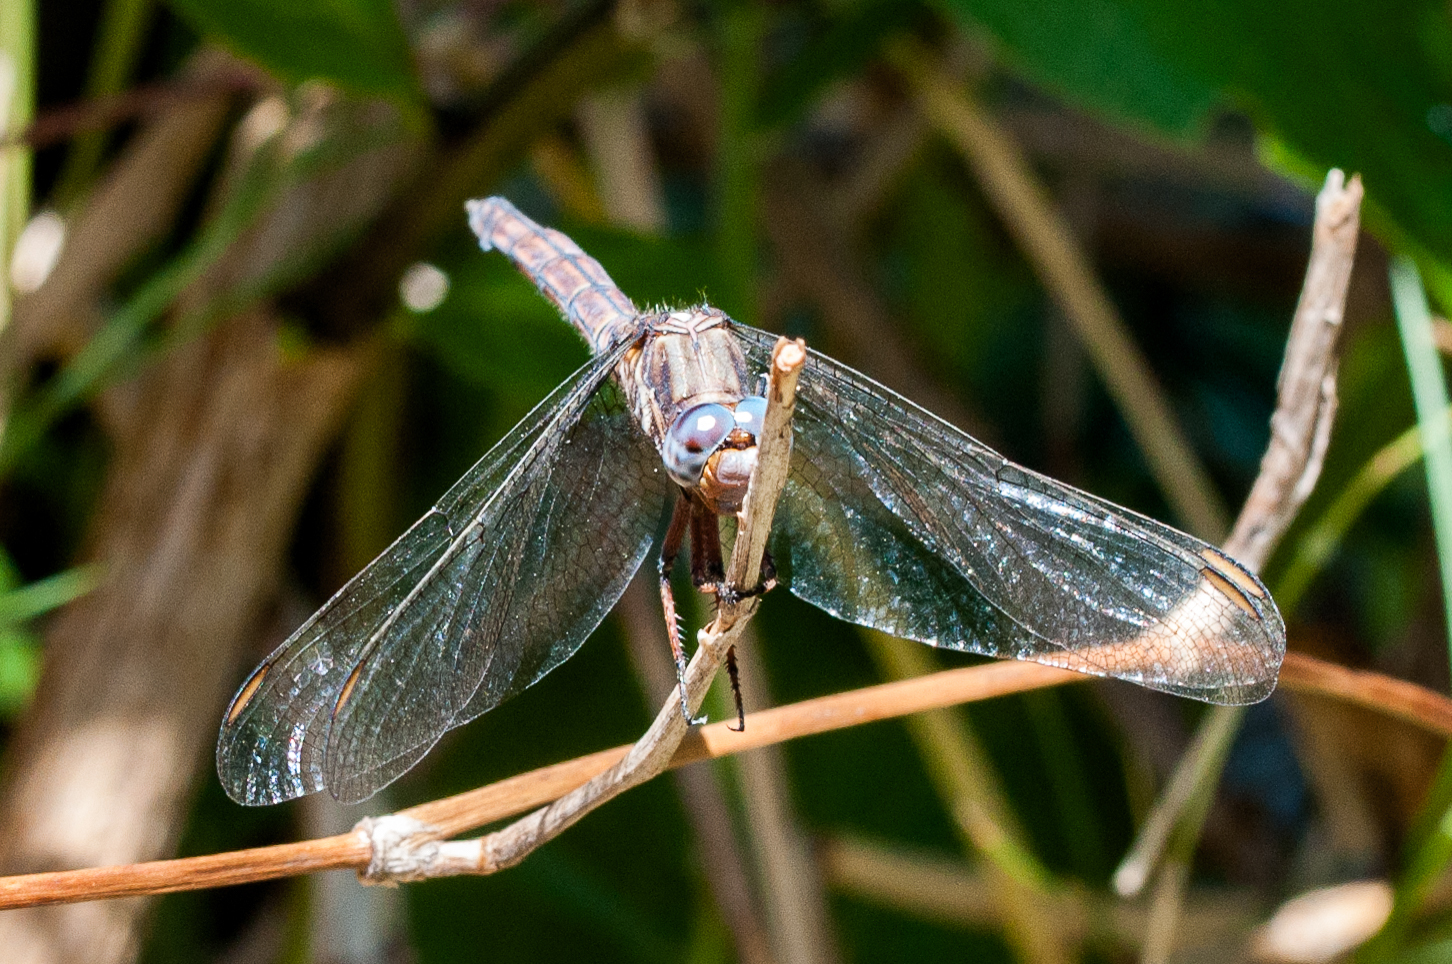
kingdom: Animalia
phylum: Arthropoda
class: Insecta
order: Odonata
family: Libellulidae
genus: Orthetrum
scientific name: Orthetrum julia
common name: Julia skimmer
